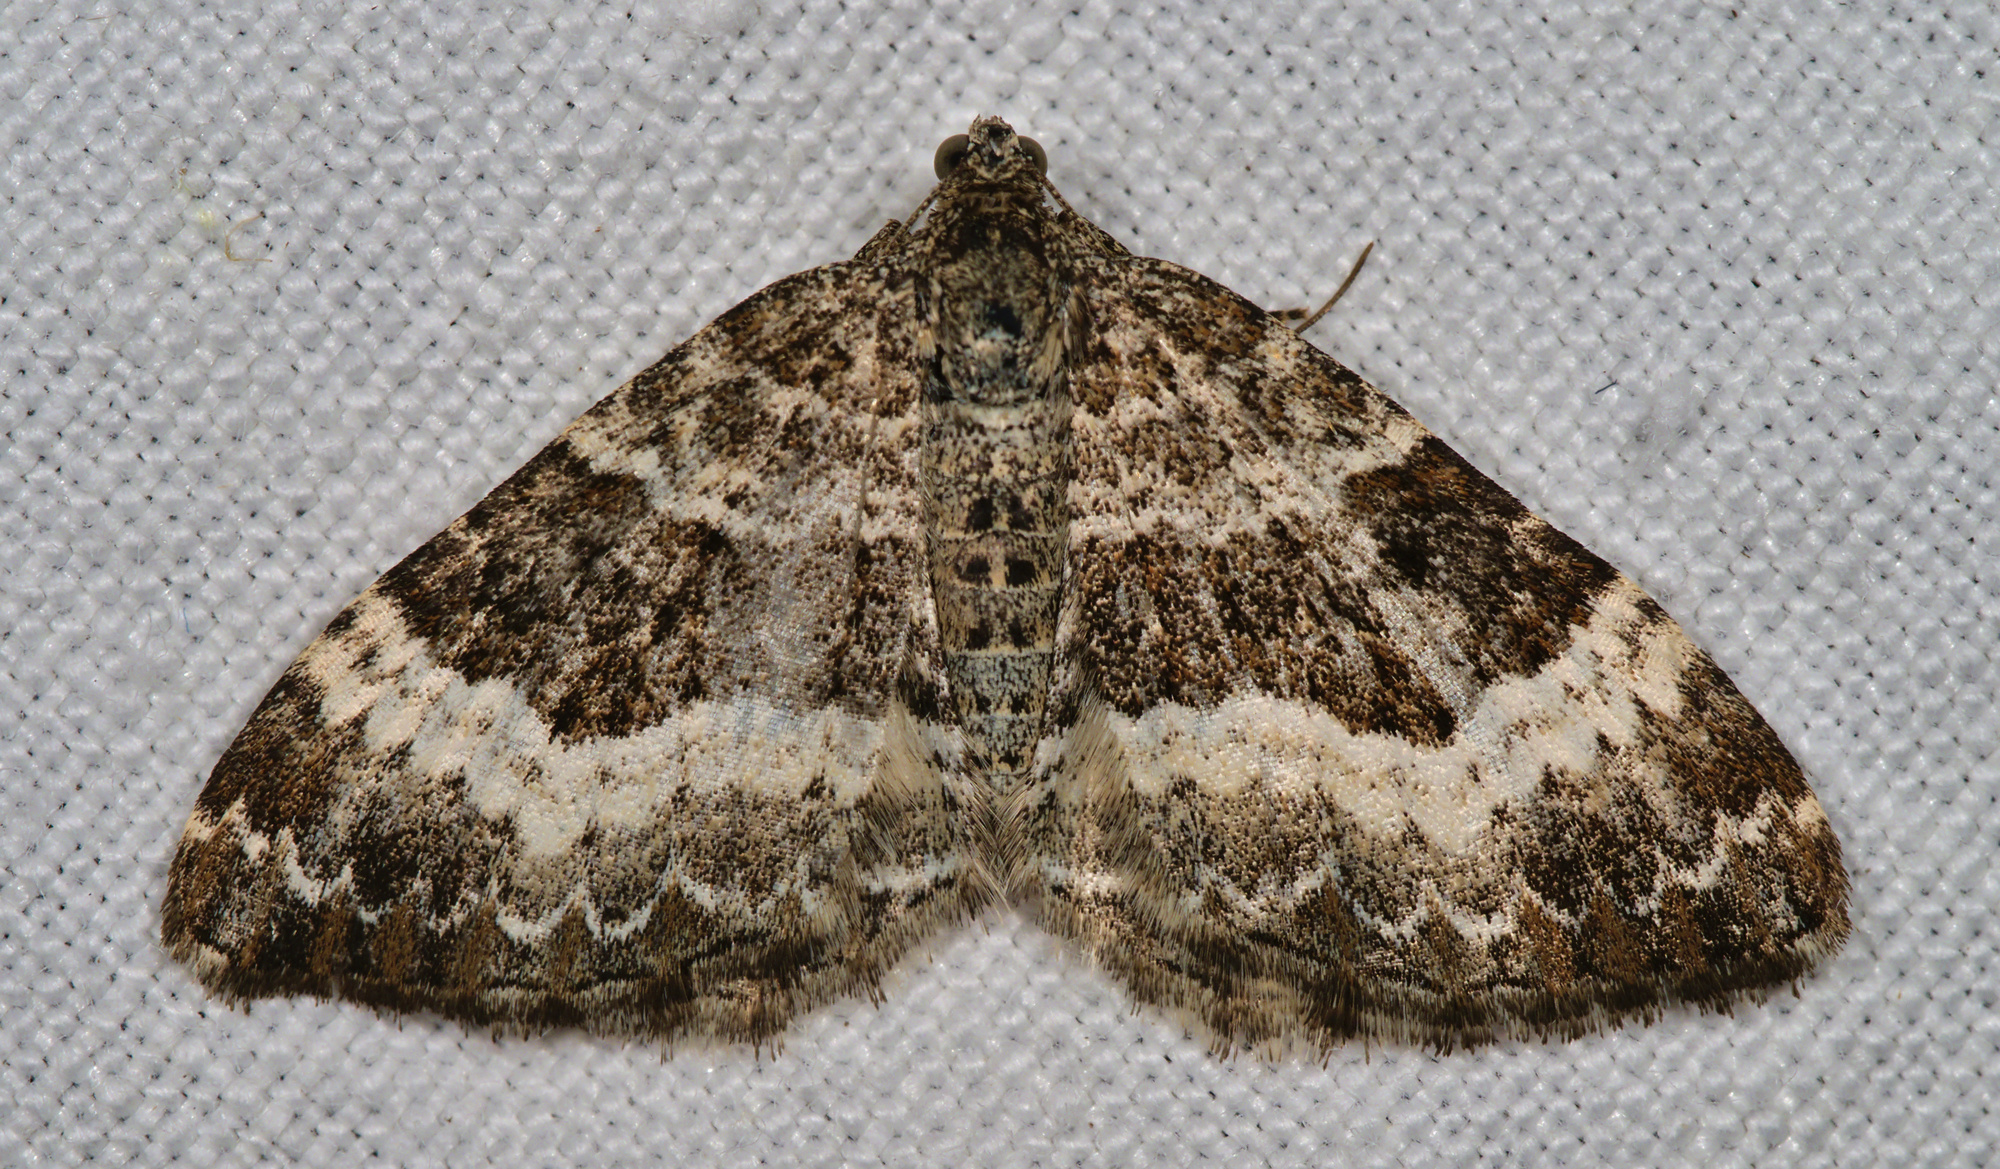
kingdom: Animalia
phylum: Arthropoda
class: Insecta
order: Lepidoptera
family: Geometridae
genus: Epirrhoe
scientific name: Epirrhoe alternata
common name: Common carpet
